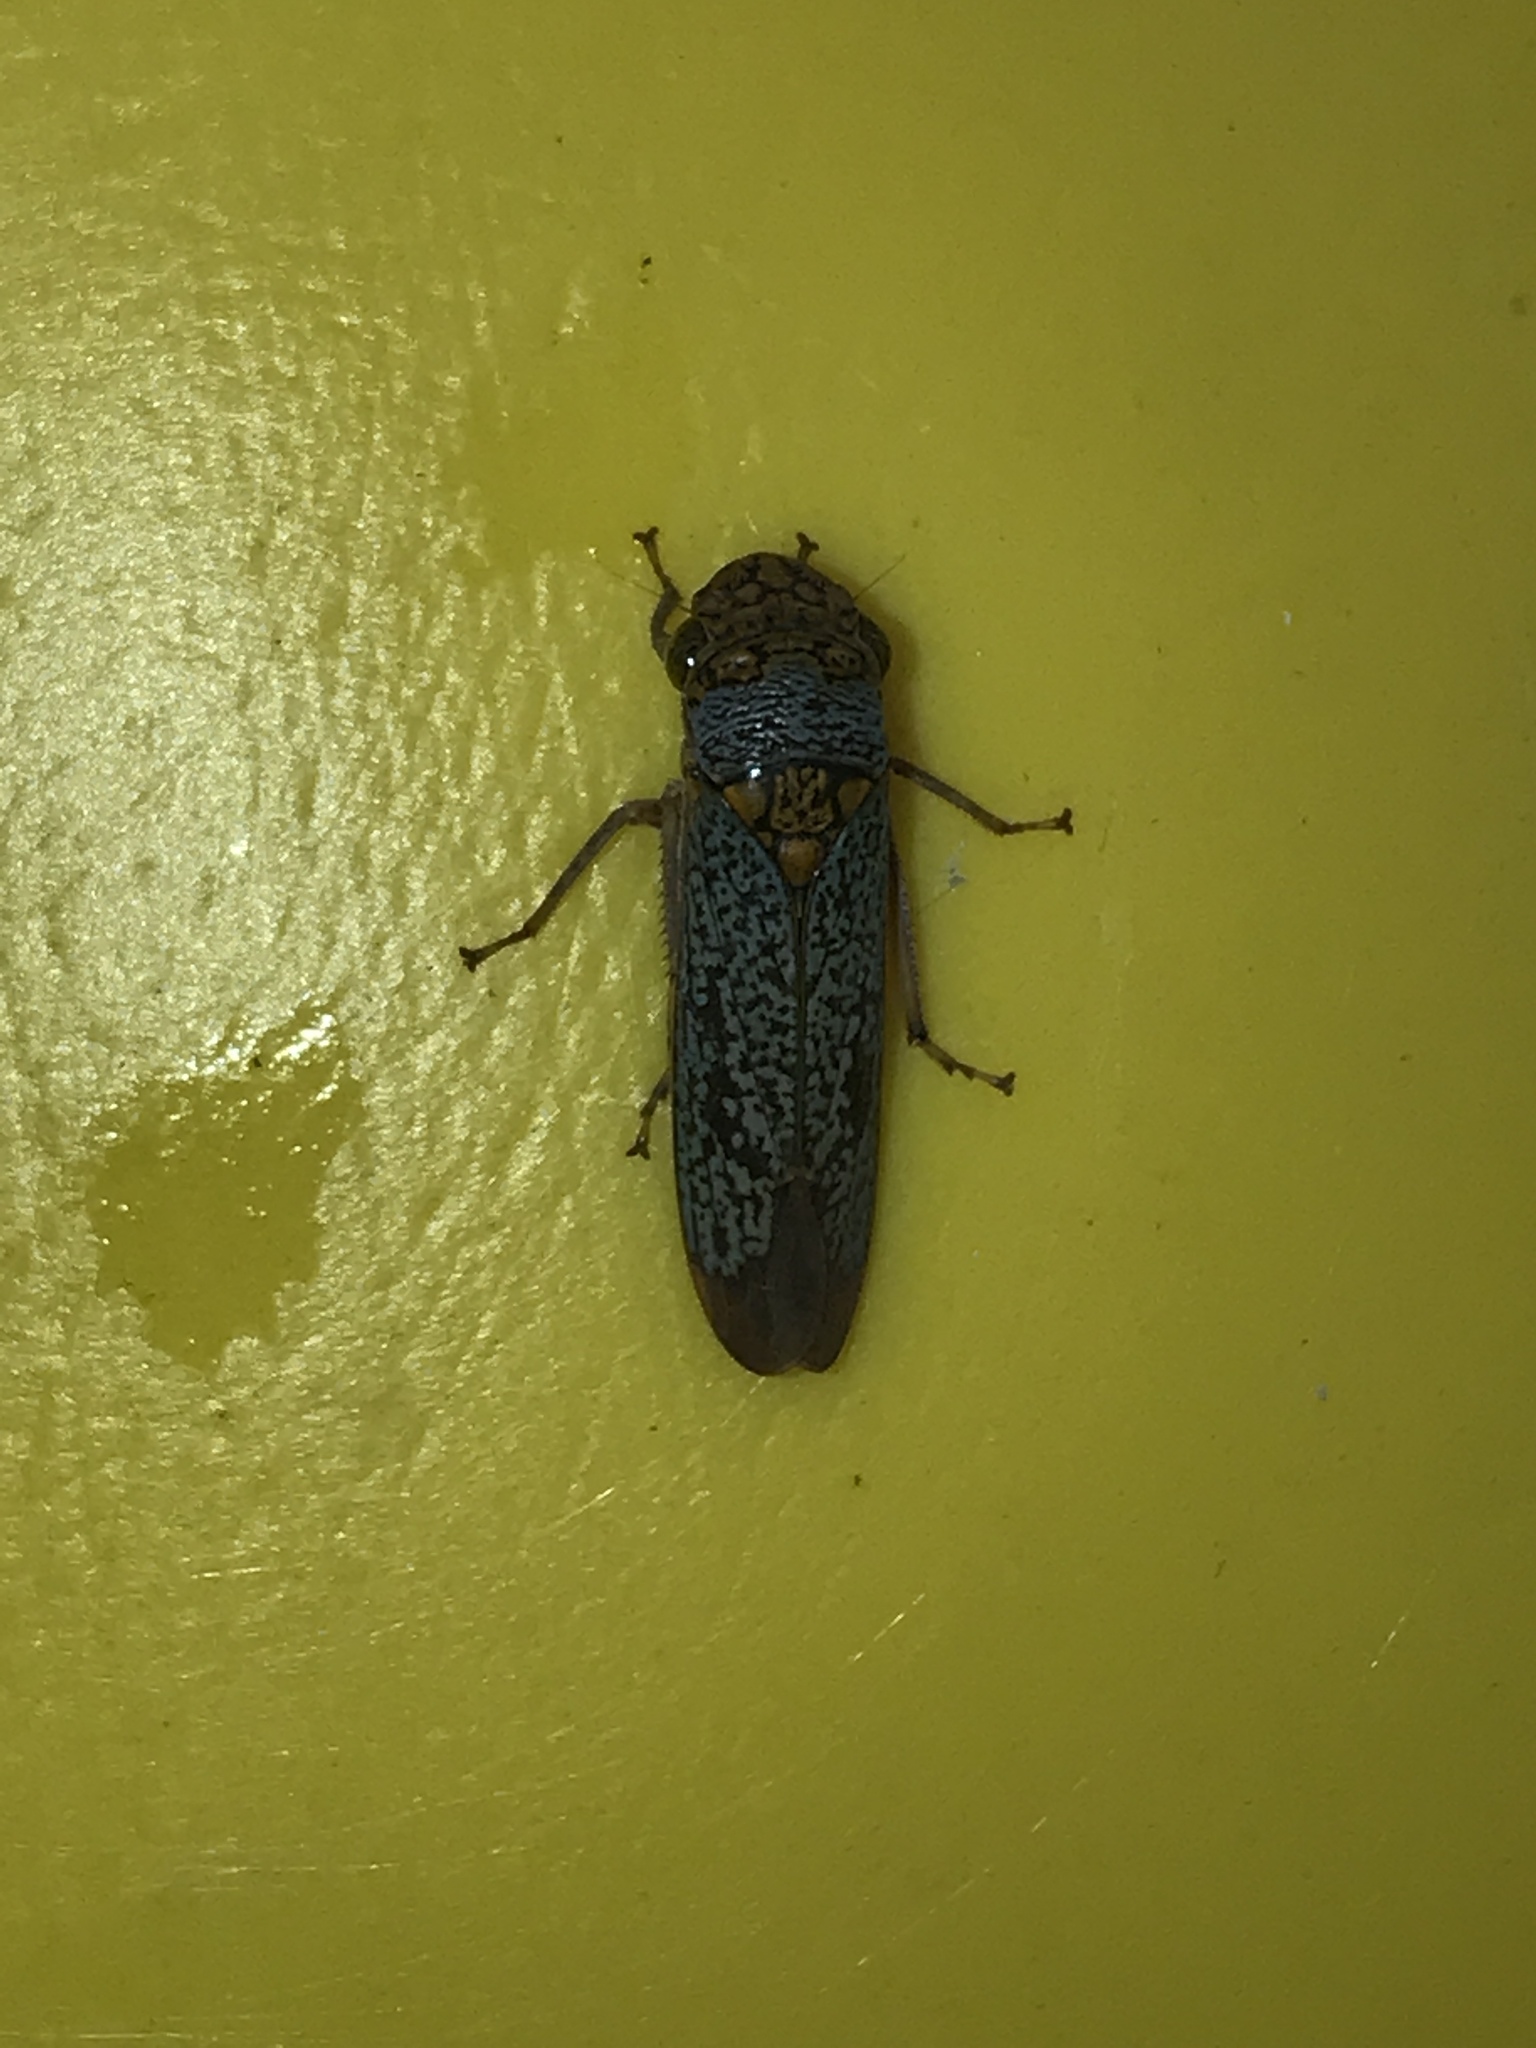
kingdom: Animalia
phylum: Arthropoda
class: Insecta
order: Hemiptera
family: Cicadellidae
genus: Oncometopia
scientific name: Oncometopia orbona
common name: Broad-headed sharpshooter
